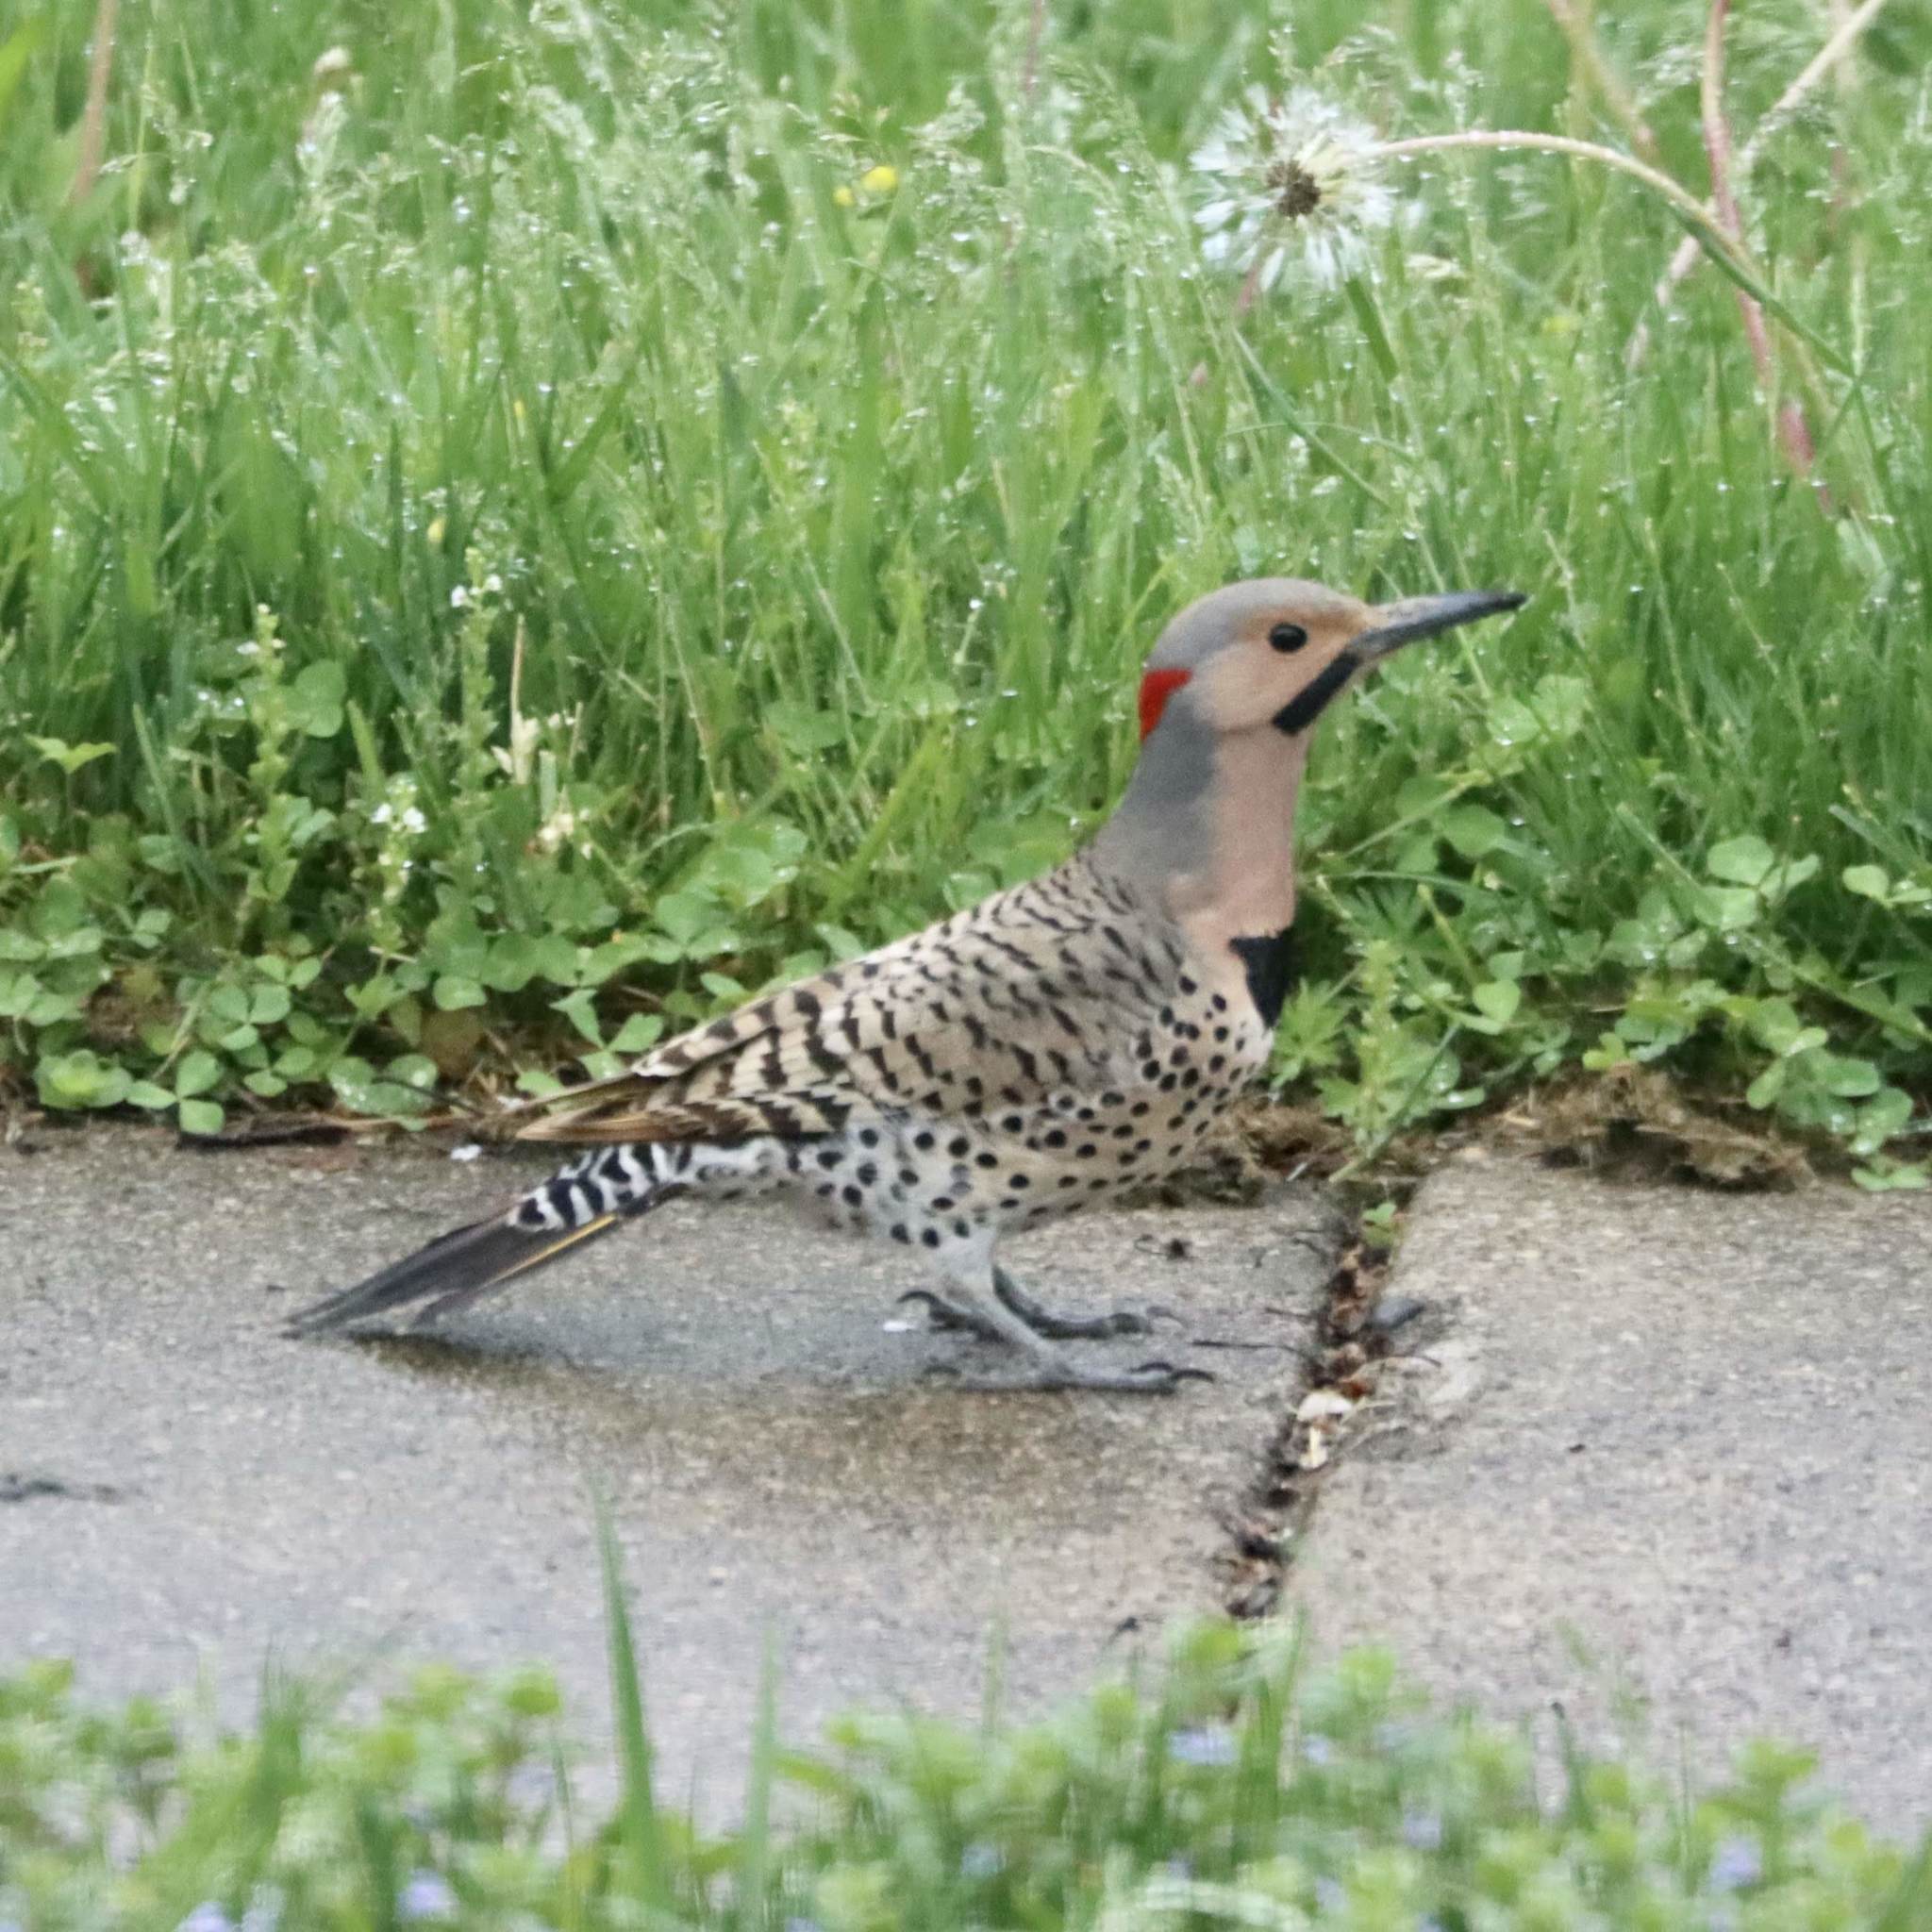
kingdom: Animalia
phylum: Chordata
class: Aves
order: Piciformes
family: Picidae
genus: Colaptes
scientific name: Colaptes auratus
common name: Northern flicker
